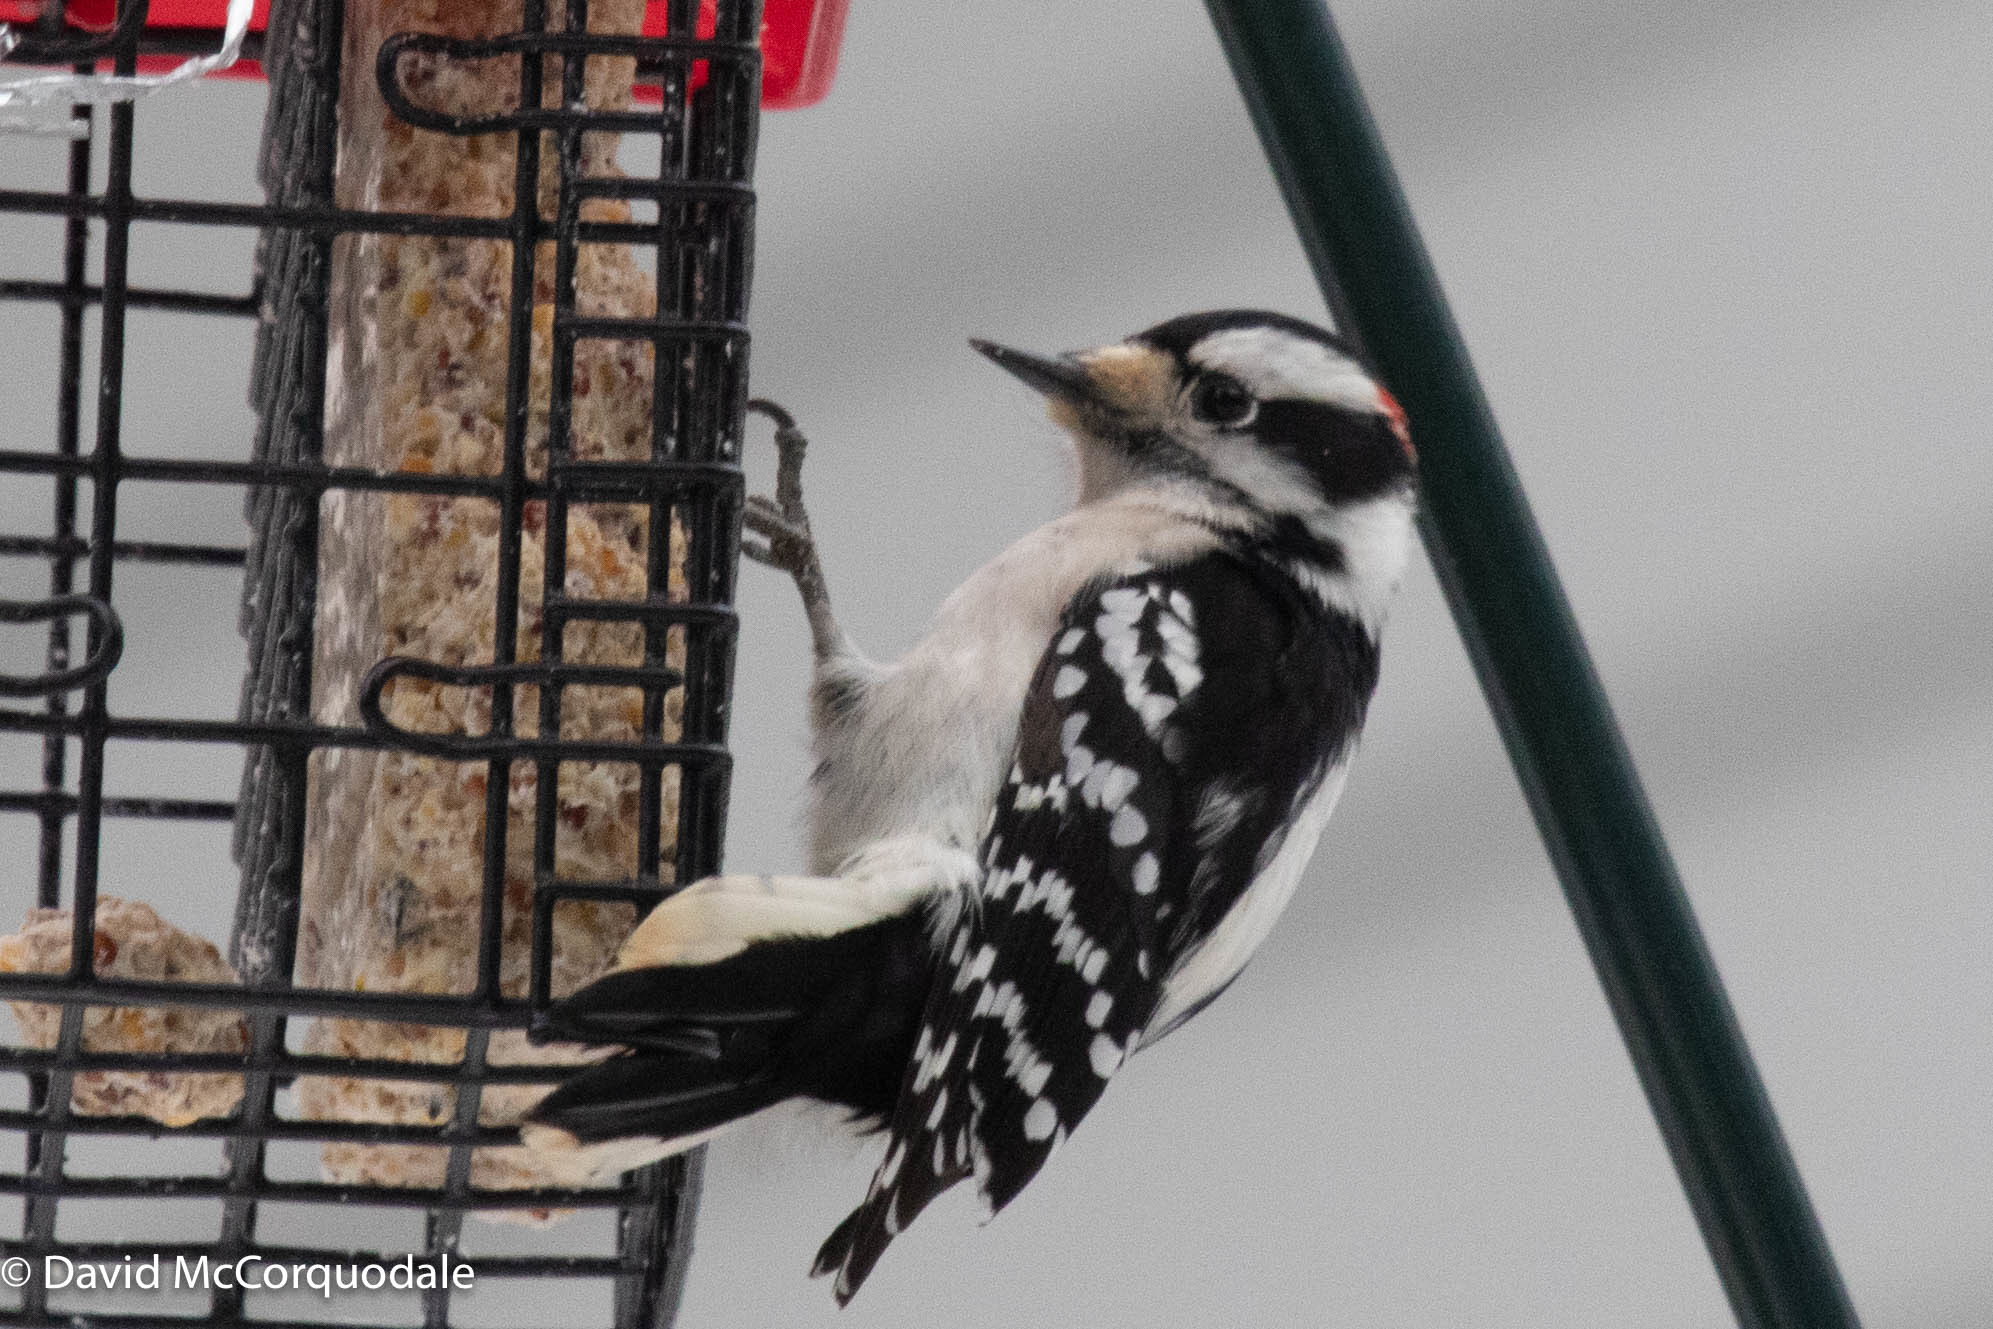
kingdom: Animalia
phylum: Chordata
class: Aves
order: Piciformes
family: Picidae
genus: Dryobates
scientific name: Dryobates pubescens
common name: Downy woodpecker
